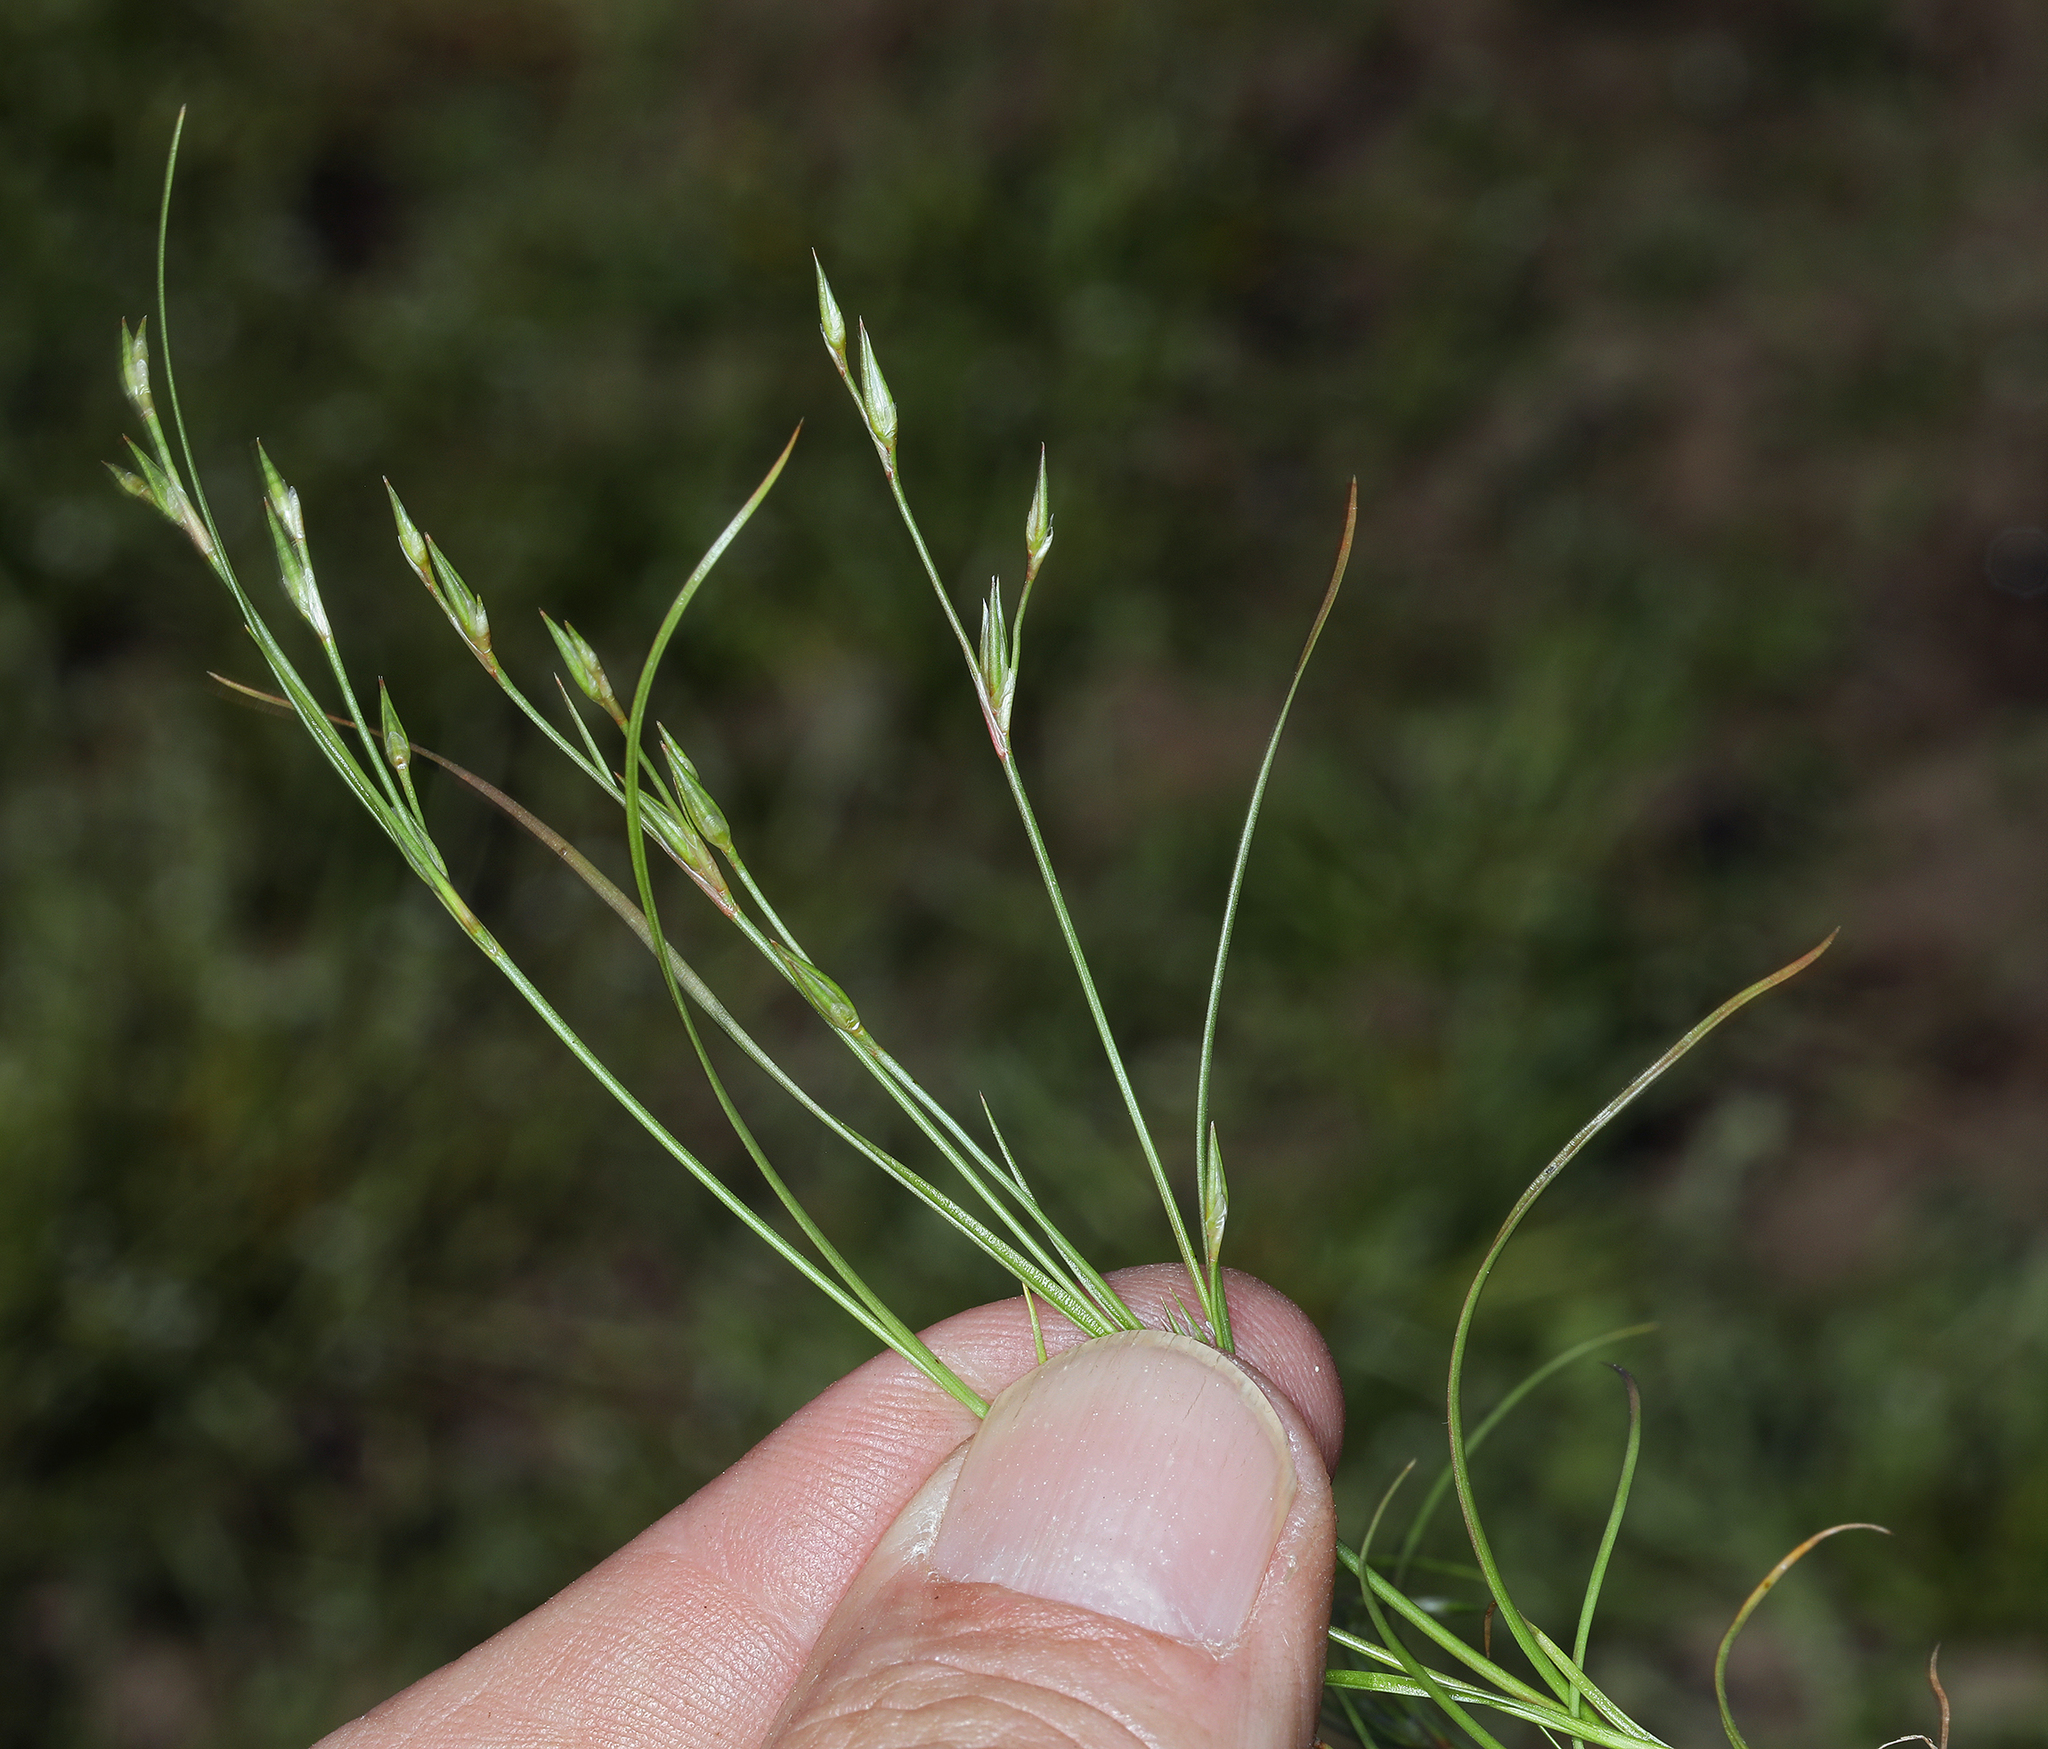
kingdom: Plantae
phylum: Tracheophyta
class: Liliopsida
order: Poales
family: Juncaceae
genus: Juncus
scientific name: Juncus bufonius
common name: Toad rush
